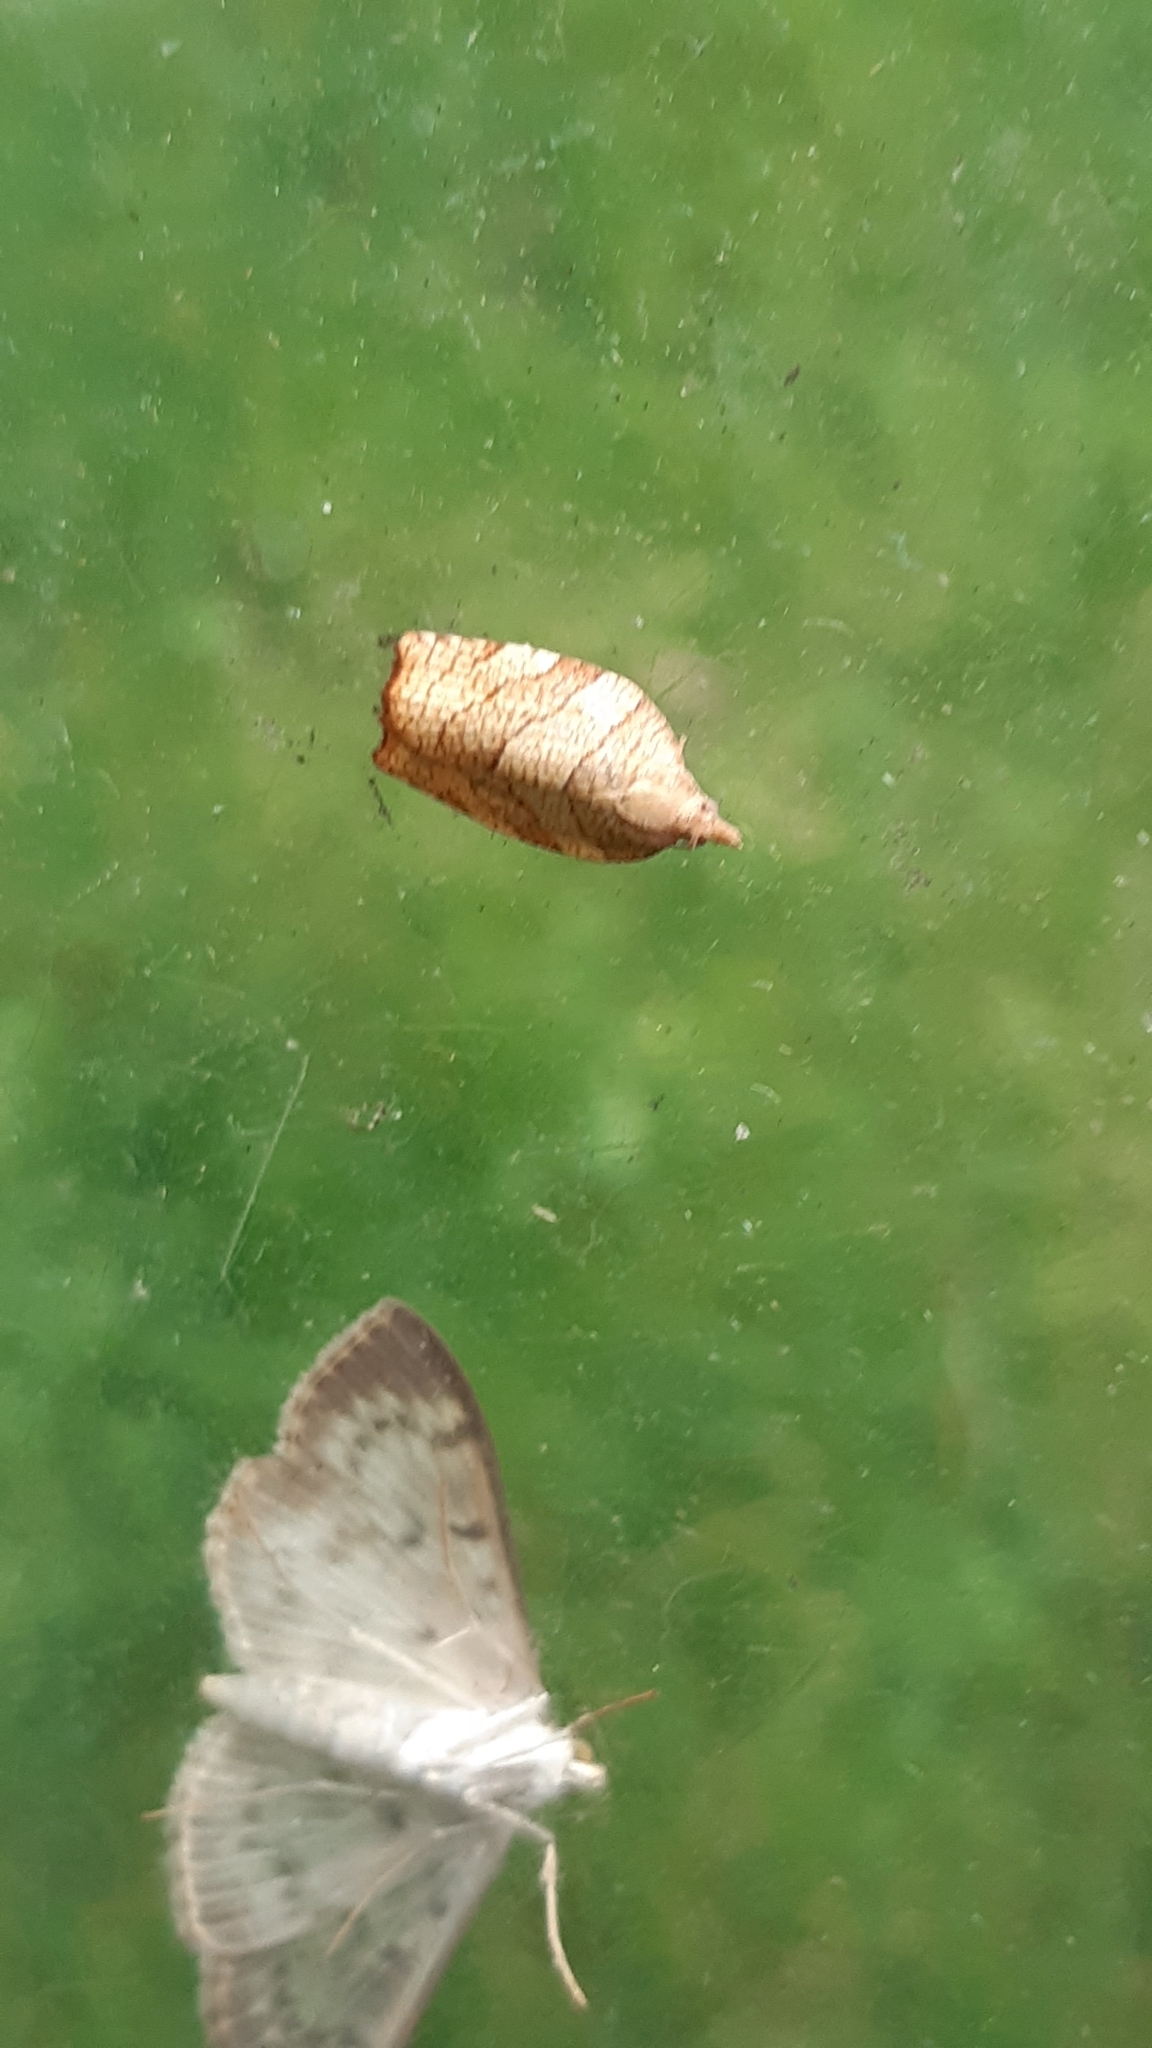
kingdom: Animalia
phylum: Arthropoda
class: Insecta
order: Lepidoptera
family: Tortricidae
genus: Pandemis
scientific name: Pandemis corylana
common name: Chequered fruit-tree tortrix
